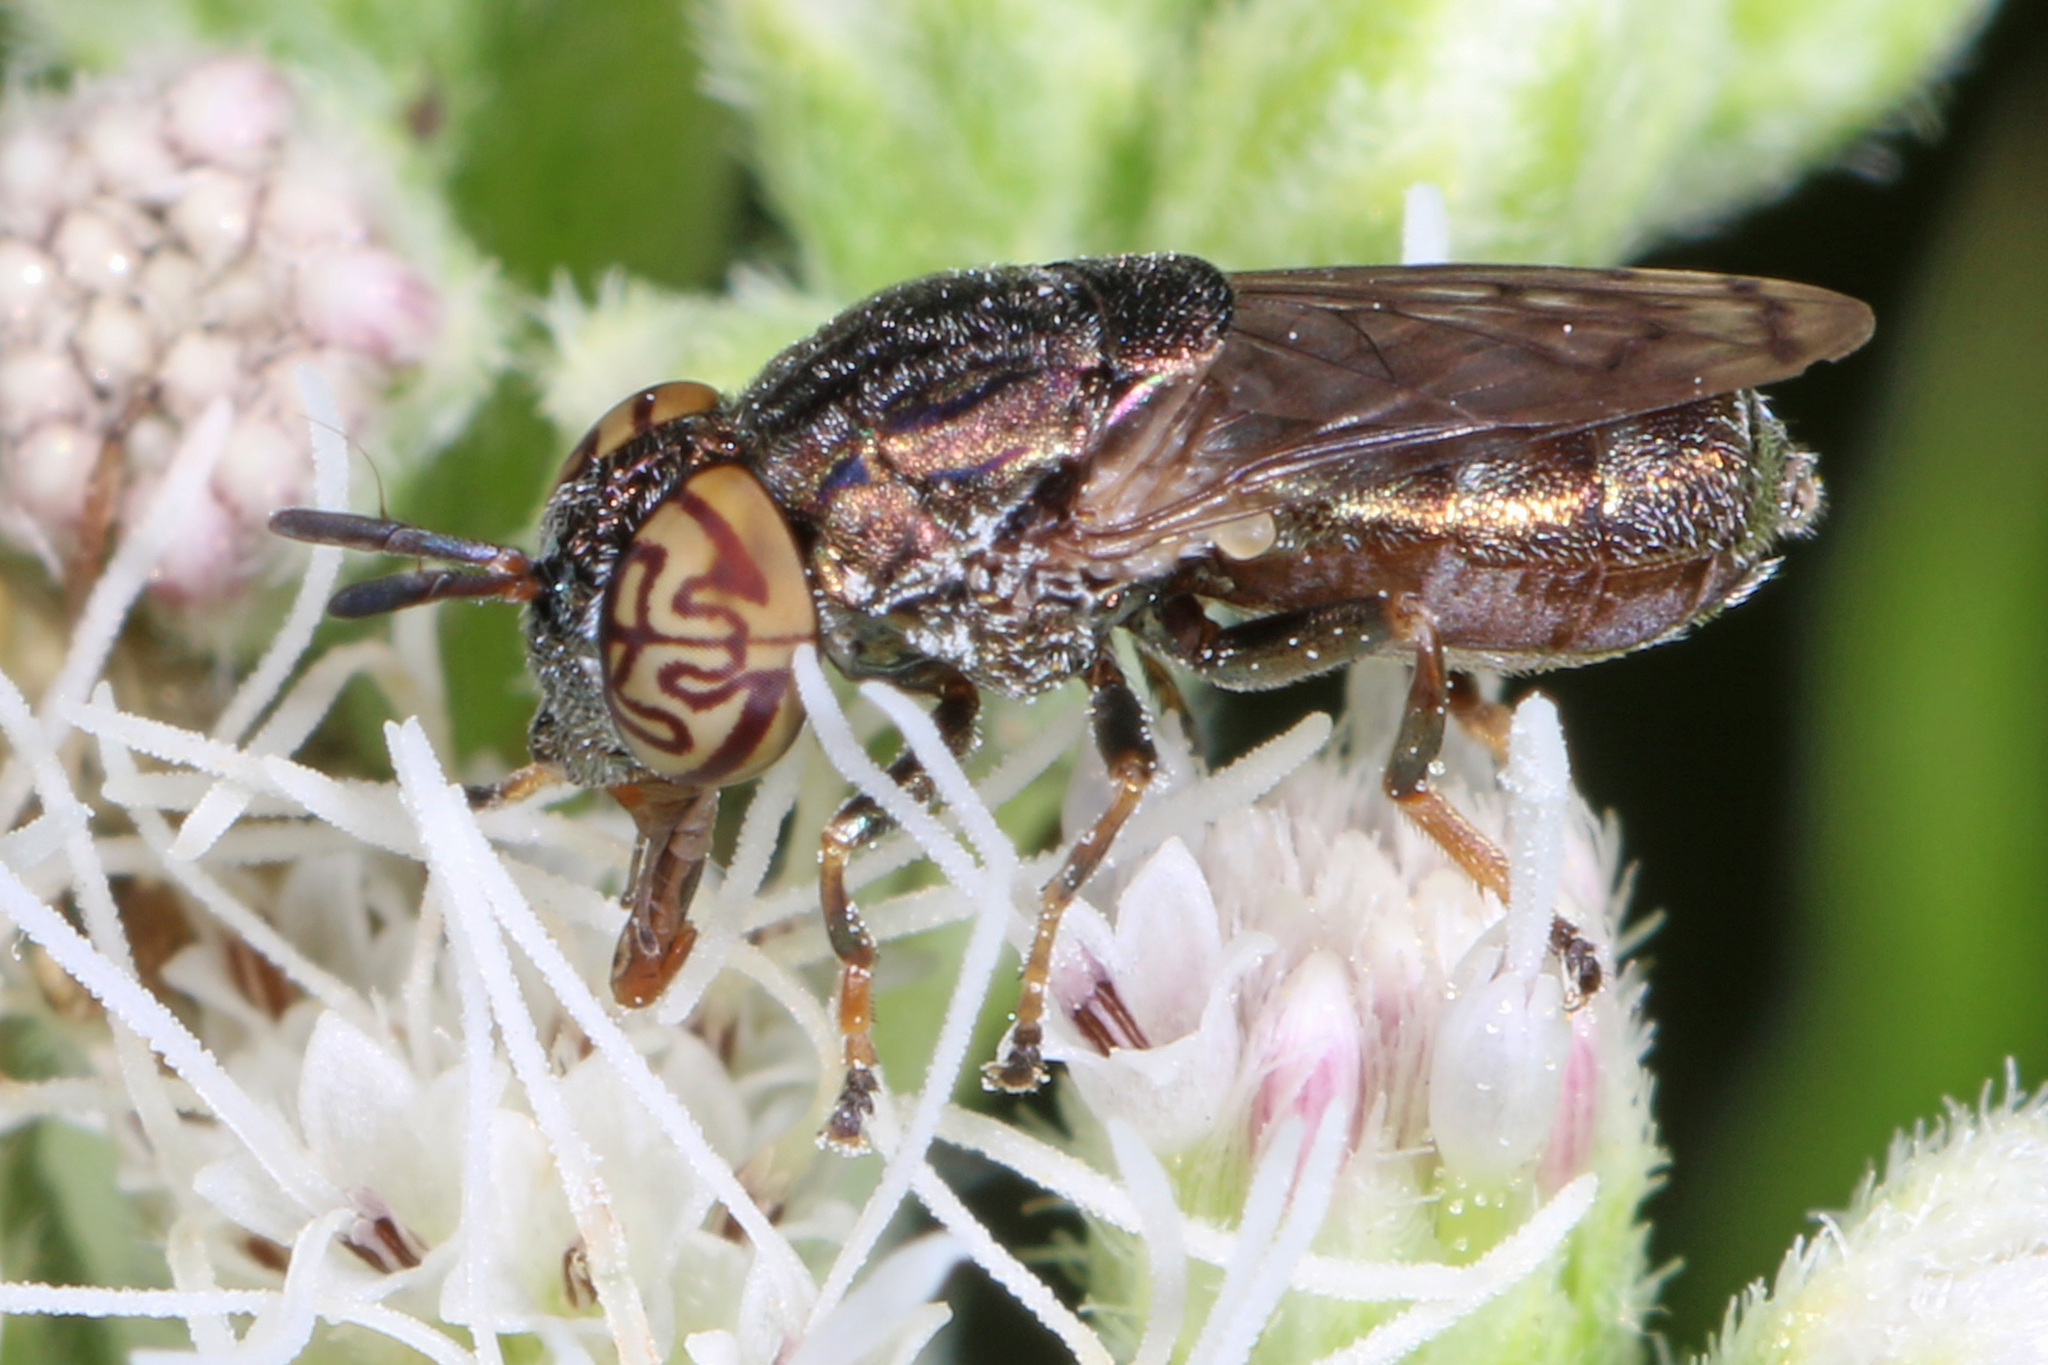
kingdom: Animalia
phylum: Arthropoda
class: Insecta
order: Diptera
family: Syrphidae
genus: Orthonevra
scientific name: Orthonevra nitida
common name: Wavy mucksucker
